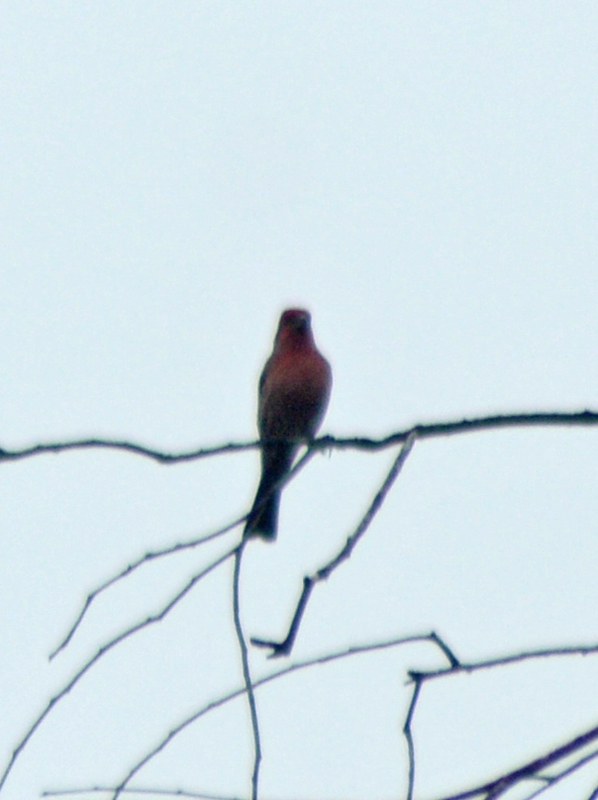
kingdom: Animalia
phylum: Chordata
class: Aves
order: Passeriformes
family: Fringillidae
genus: Haemorhous
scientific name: Haemorhous mexicanus
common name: House finch
